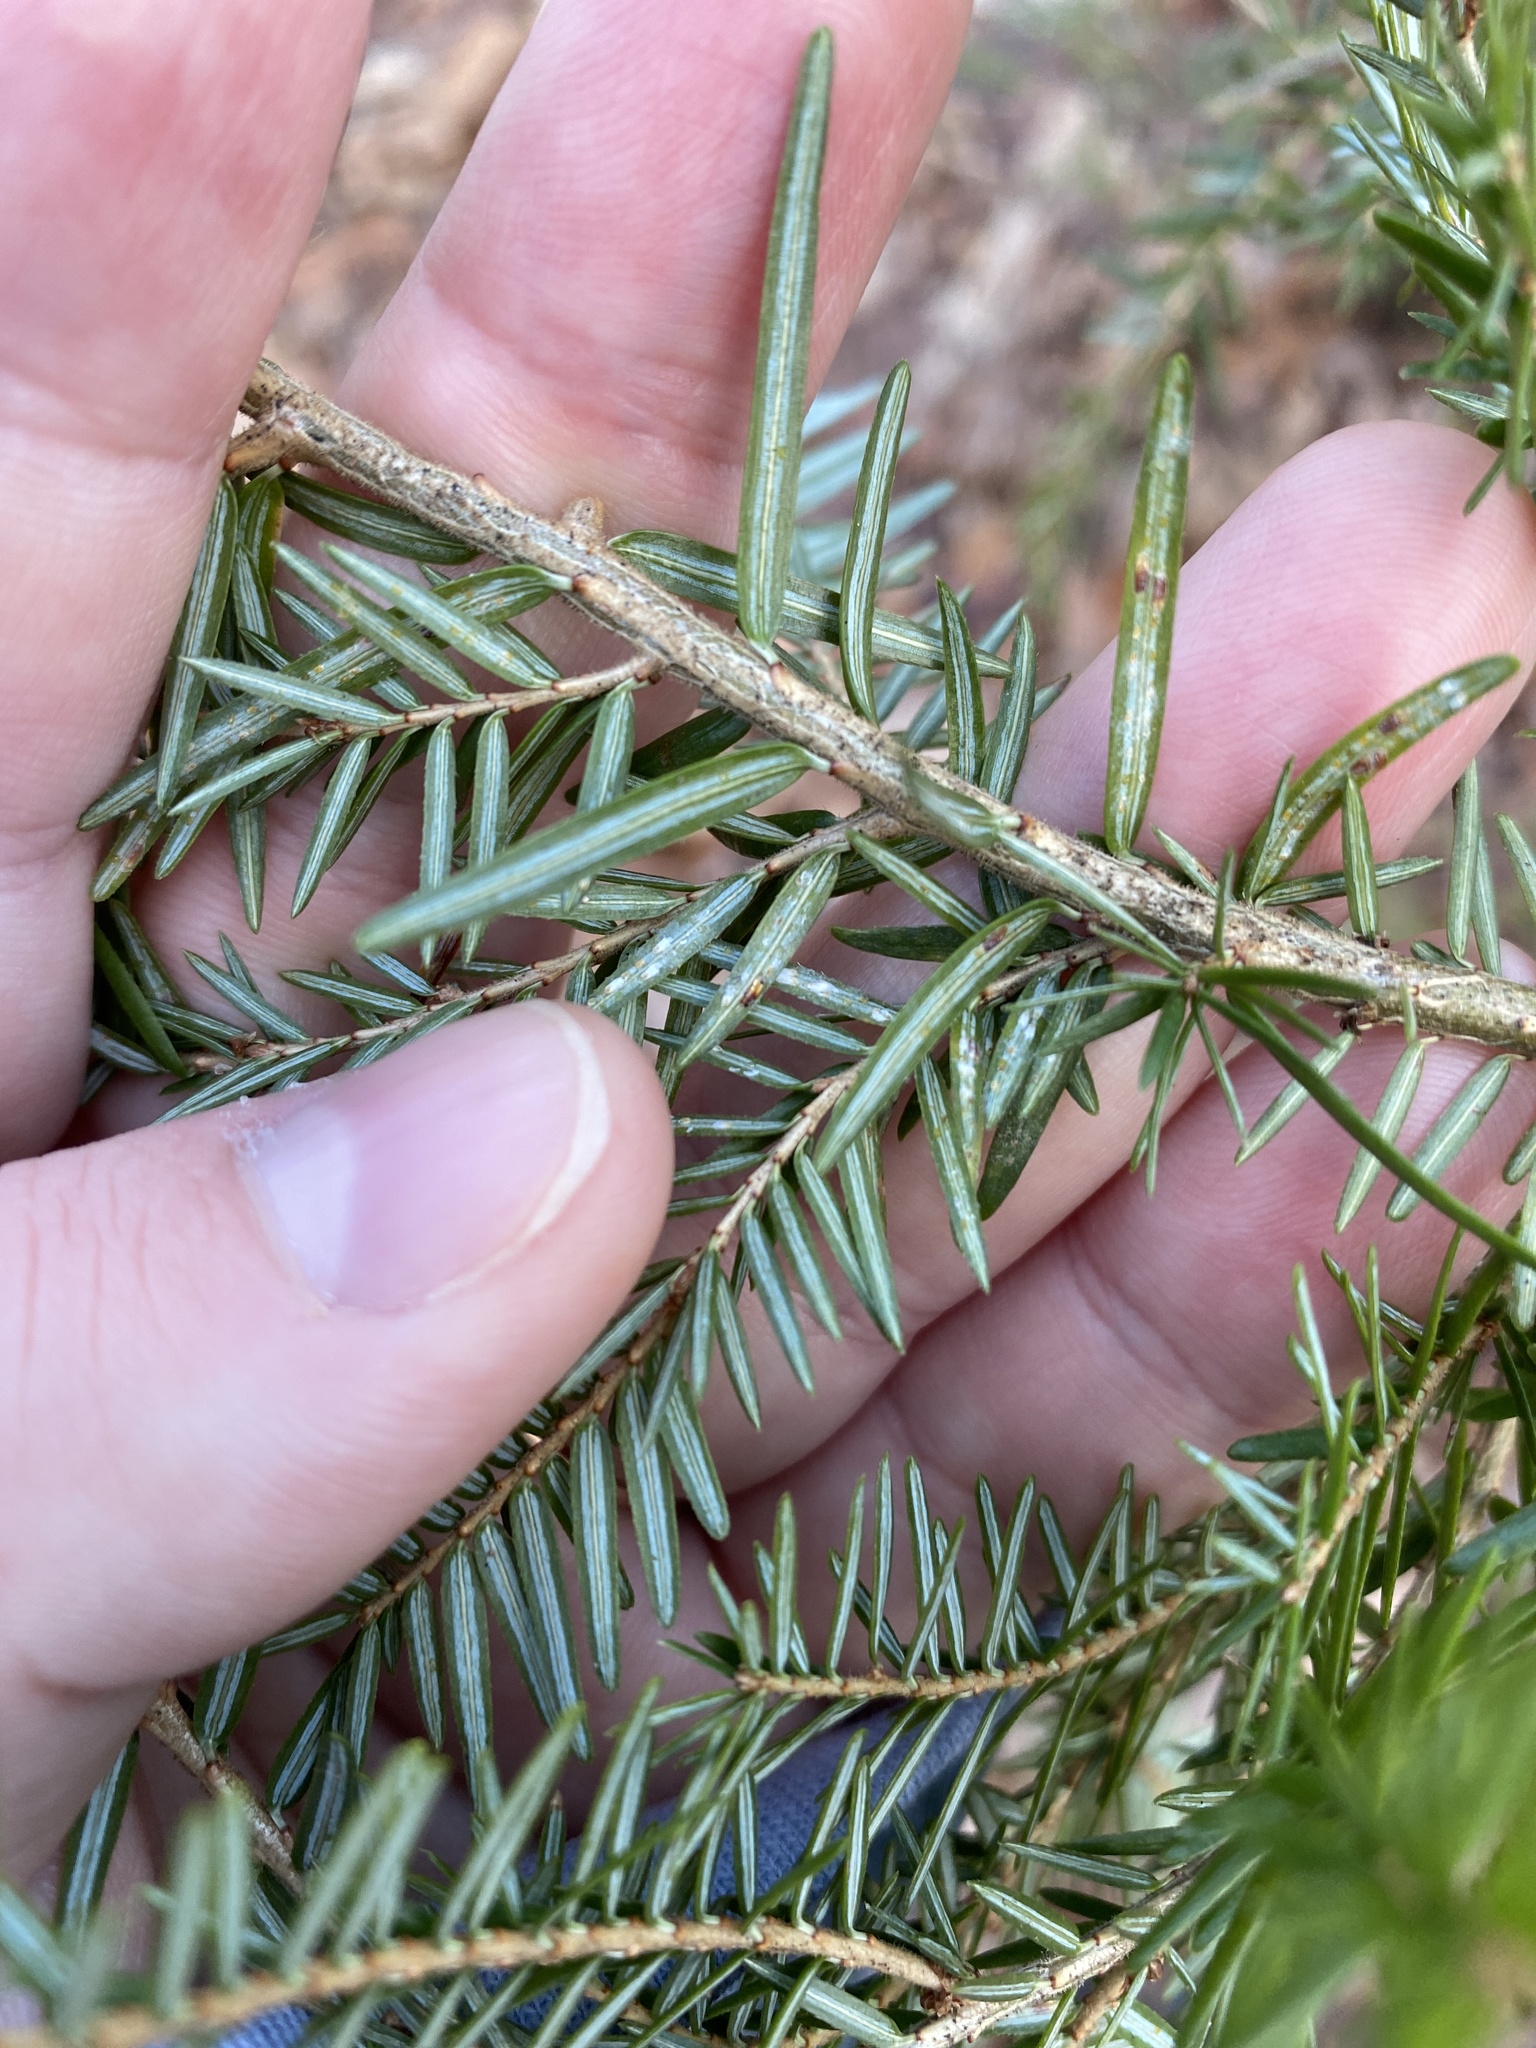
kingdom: Plantae
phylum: Tracheophyta
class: Pinopsida
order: Pinales
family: Pinaceae
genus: Tsuga
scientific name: Tsuga canadensis
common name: Eastern hemlock
